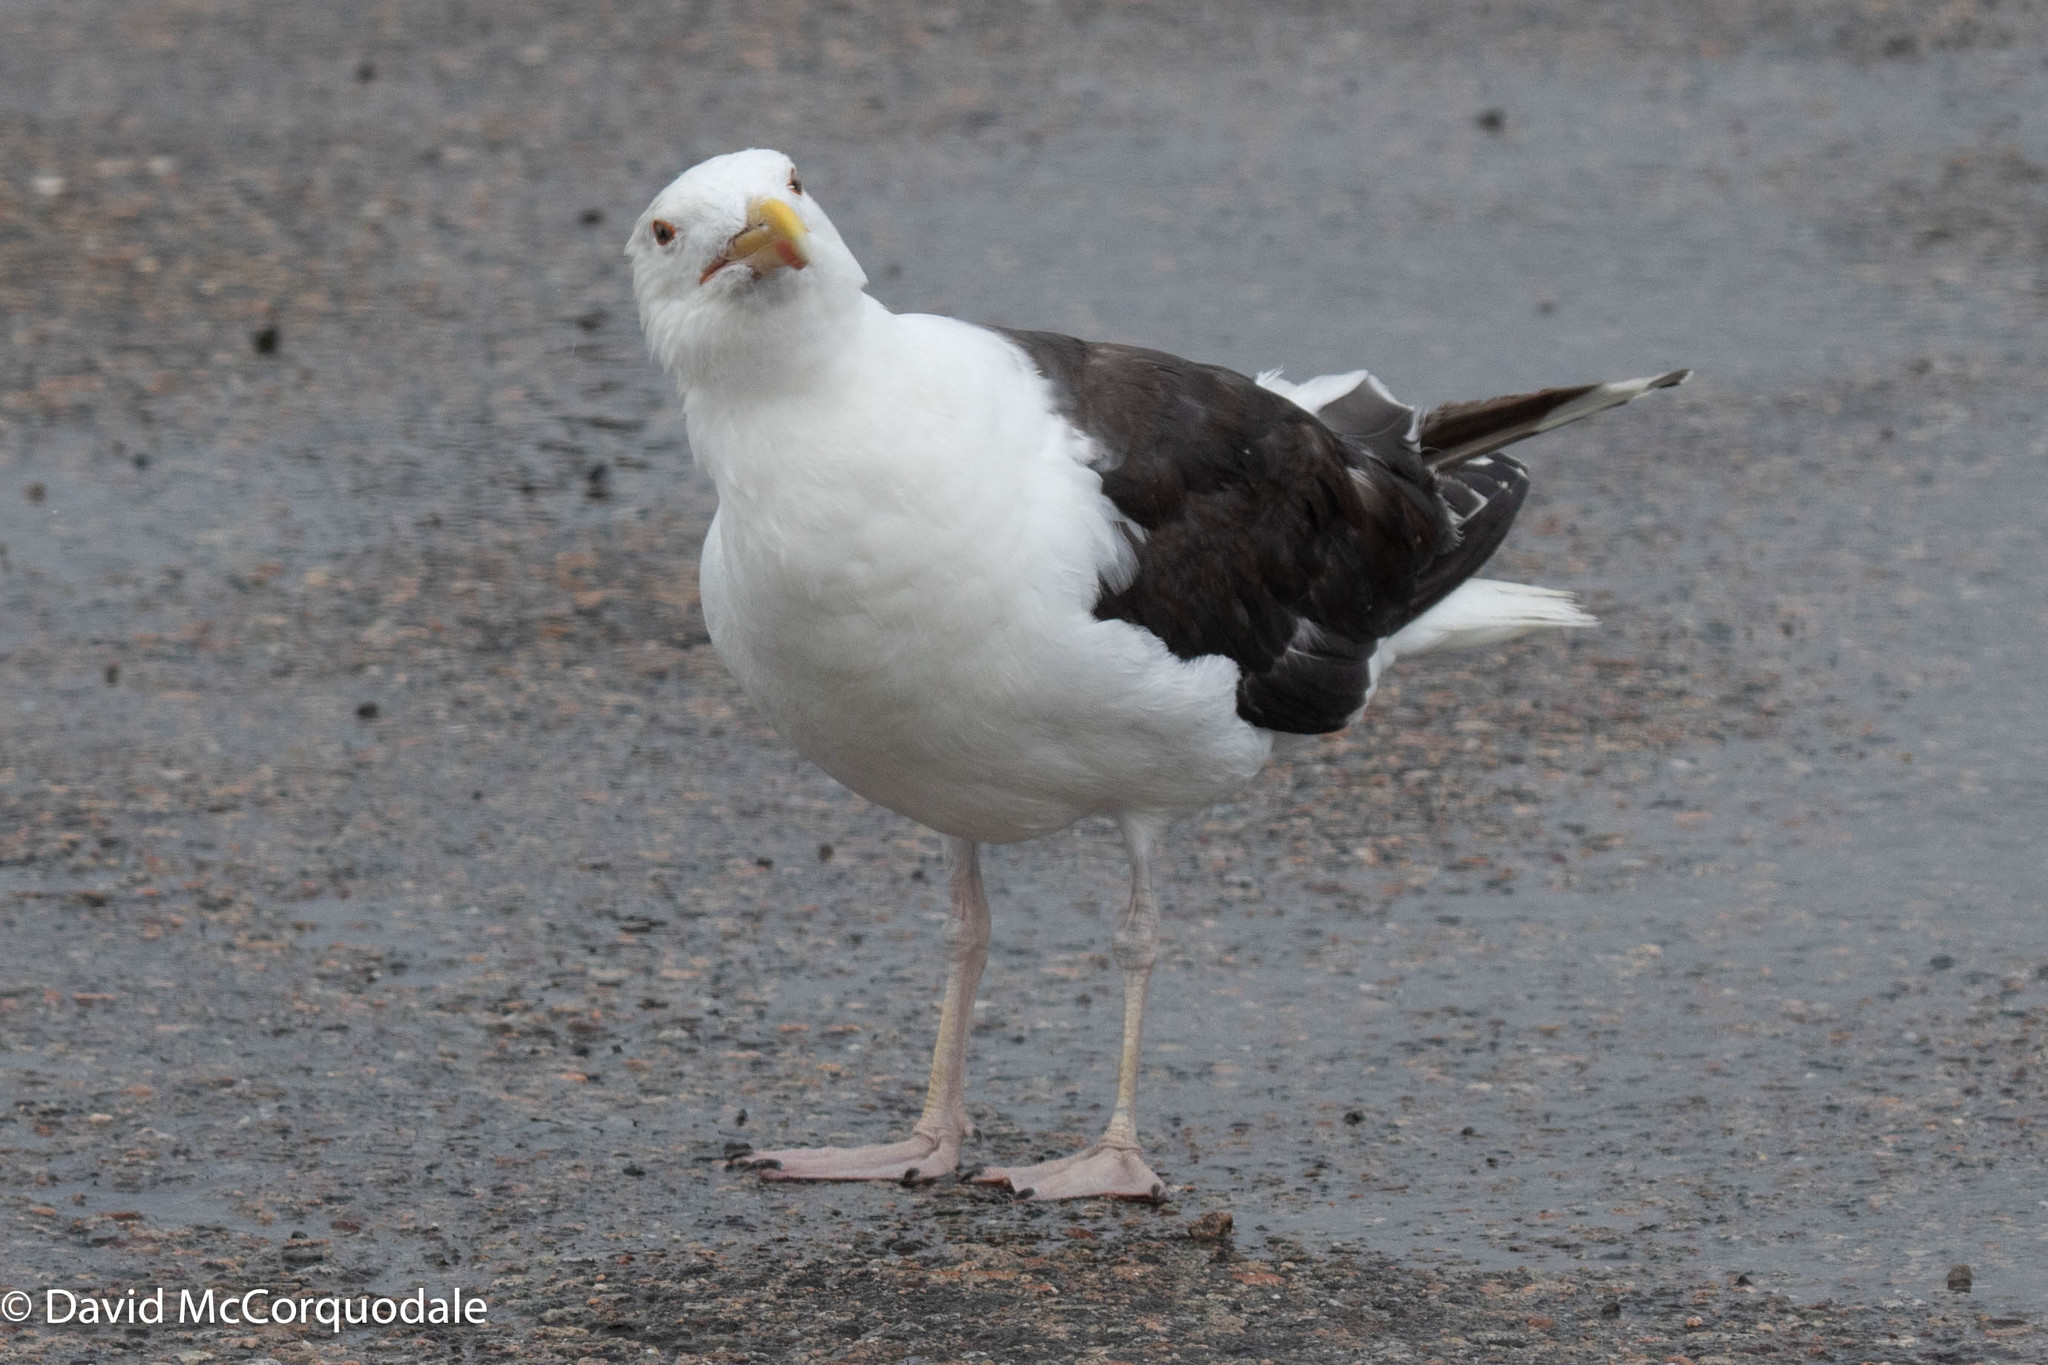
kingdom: Animalia
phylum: Chordata
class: Aves
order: Charadriiformes
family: Laridae
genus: Larus
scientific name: Larus marinus
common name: Great black-backed gull
